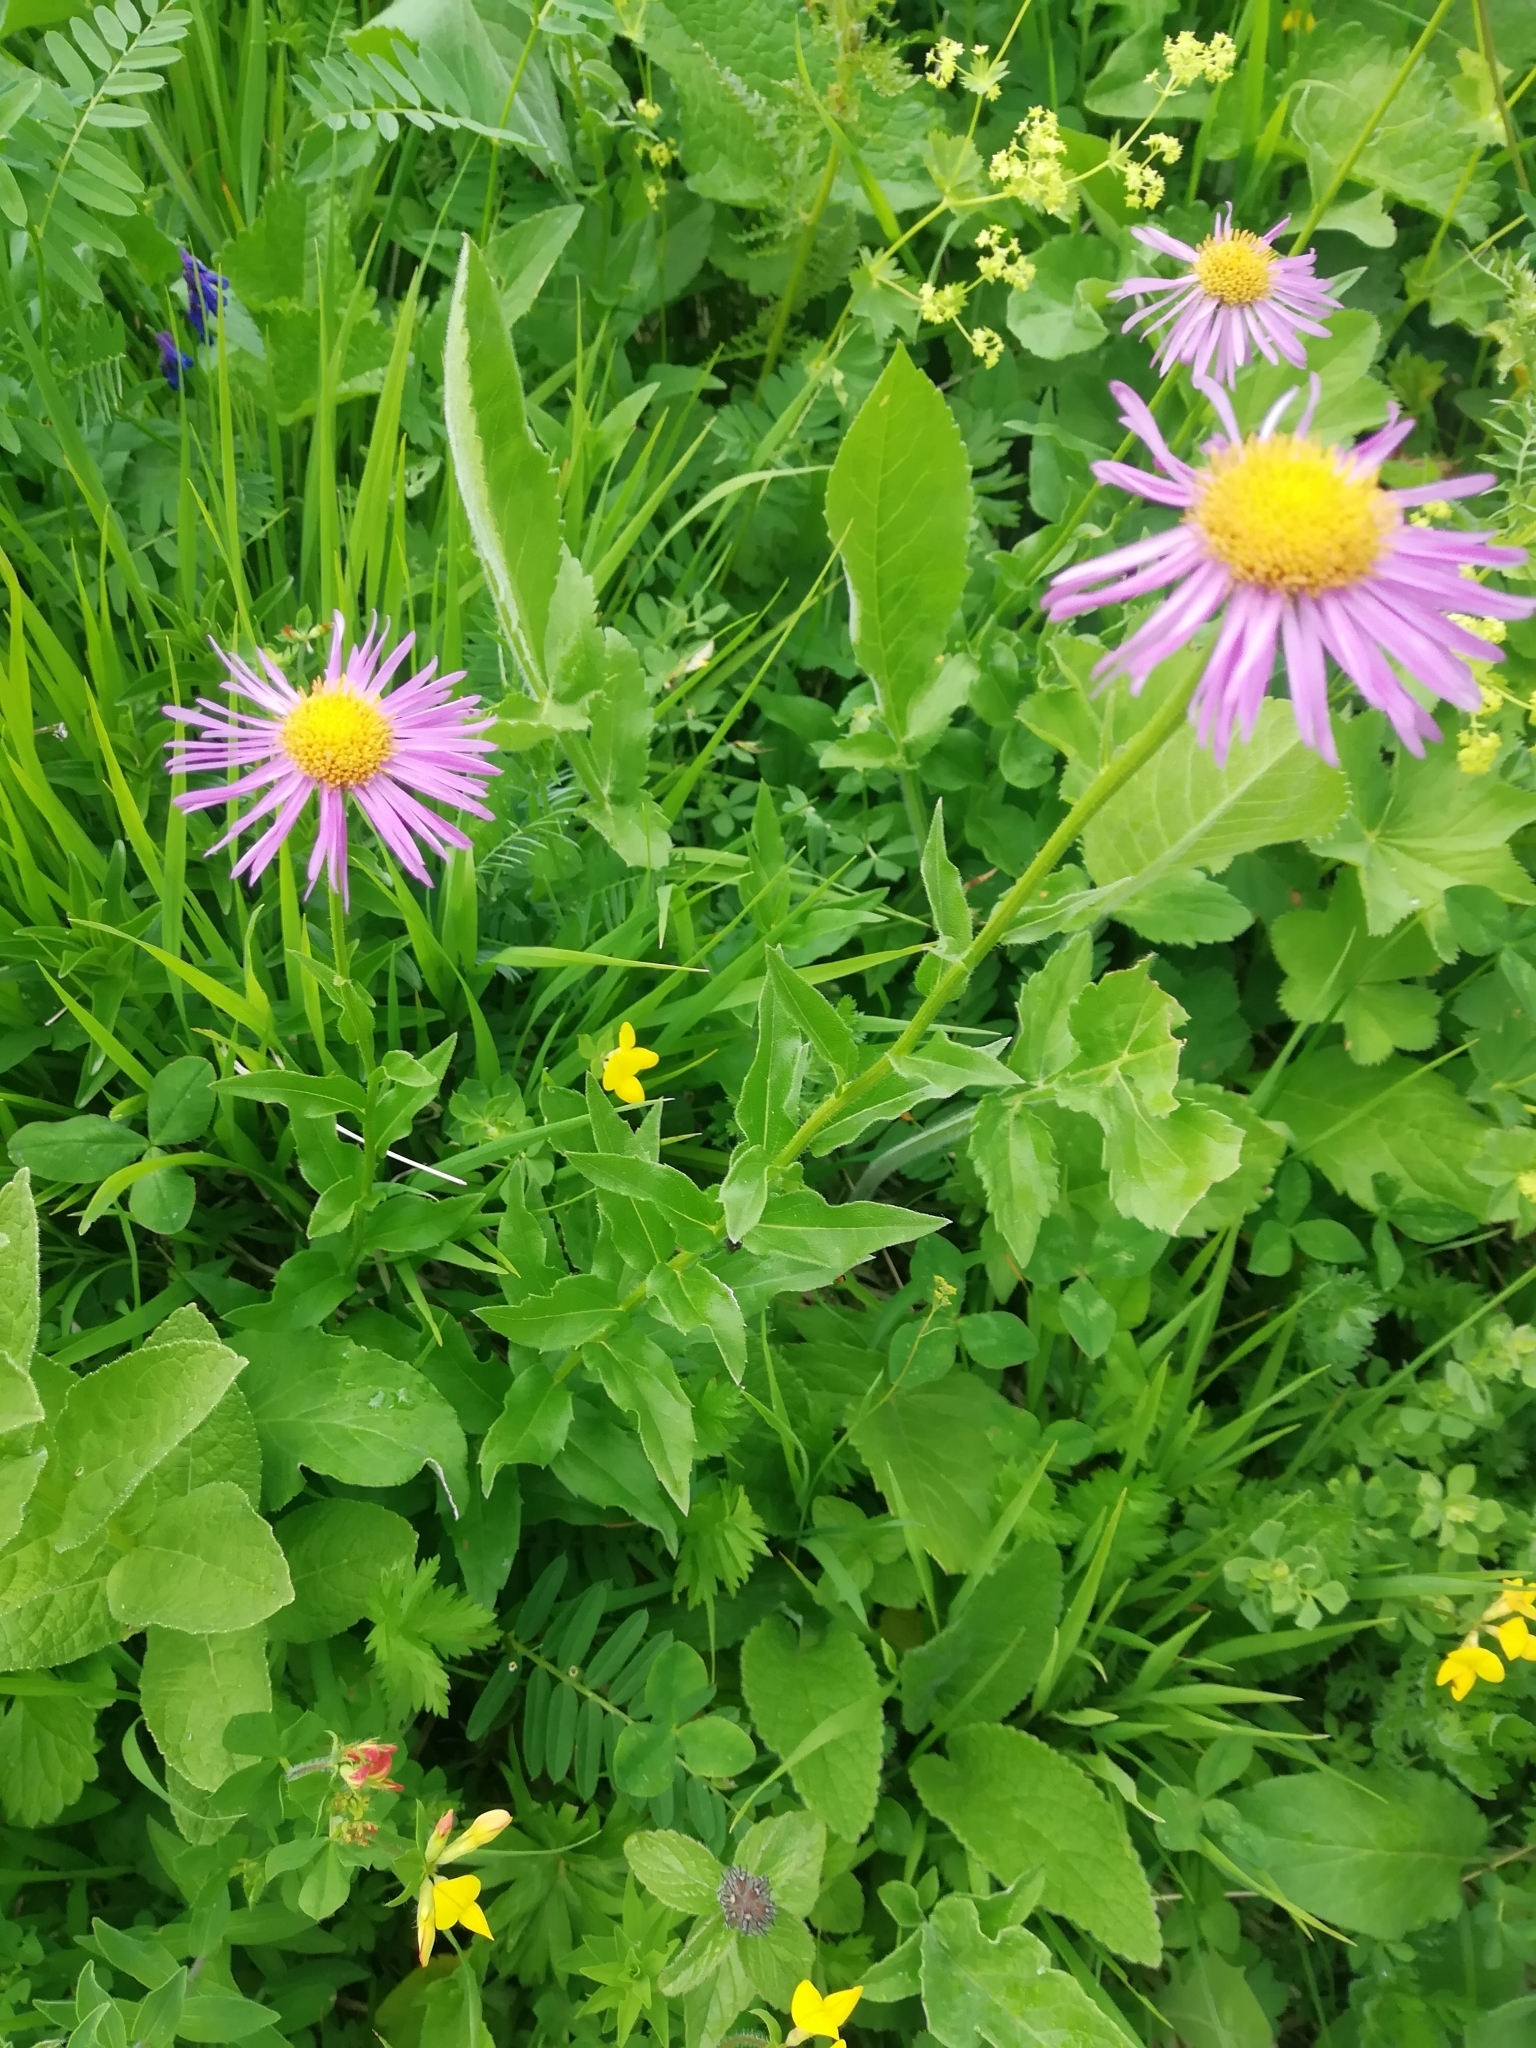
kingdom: Plantae
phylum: Tracheophyta
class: Magnoliopsida
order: Asterales
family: Asteraceae
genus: Kemulariella
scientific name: Kemulariella caucasica
